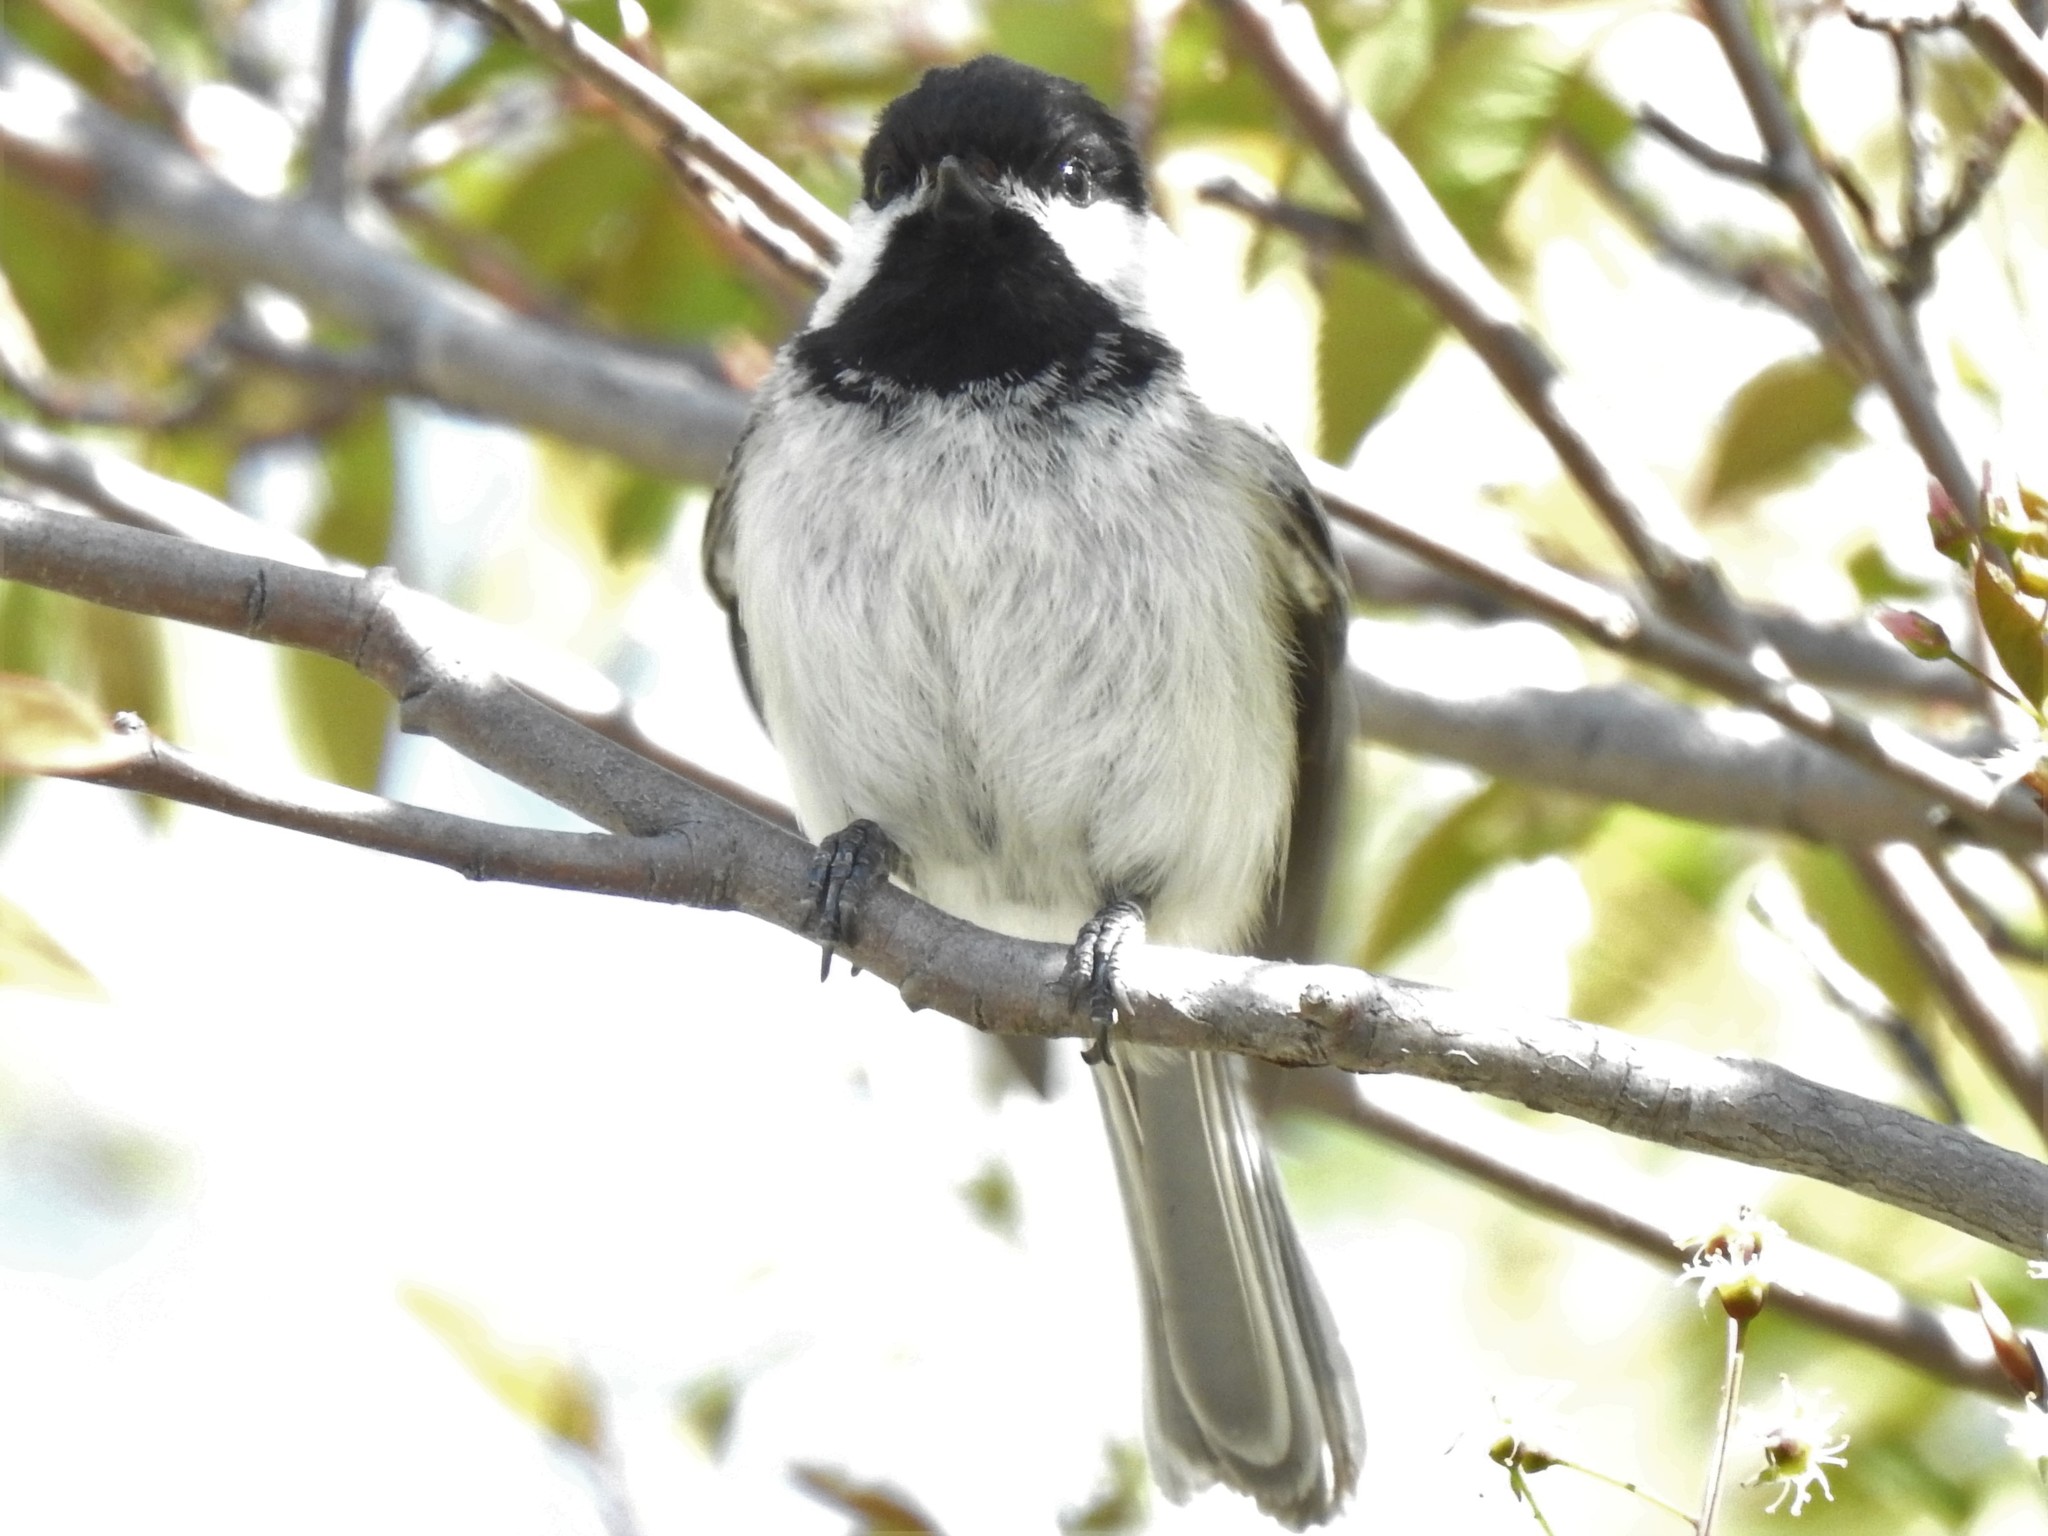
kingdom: Animalia
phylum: Chordata
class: Aves
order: Passeriformes
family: Paridae
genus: Poecile
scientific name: Poecile atricapillus
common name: Black-capped chickadee
